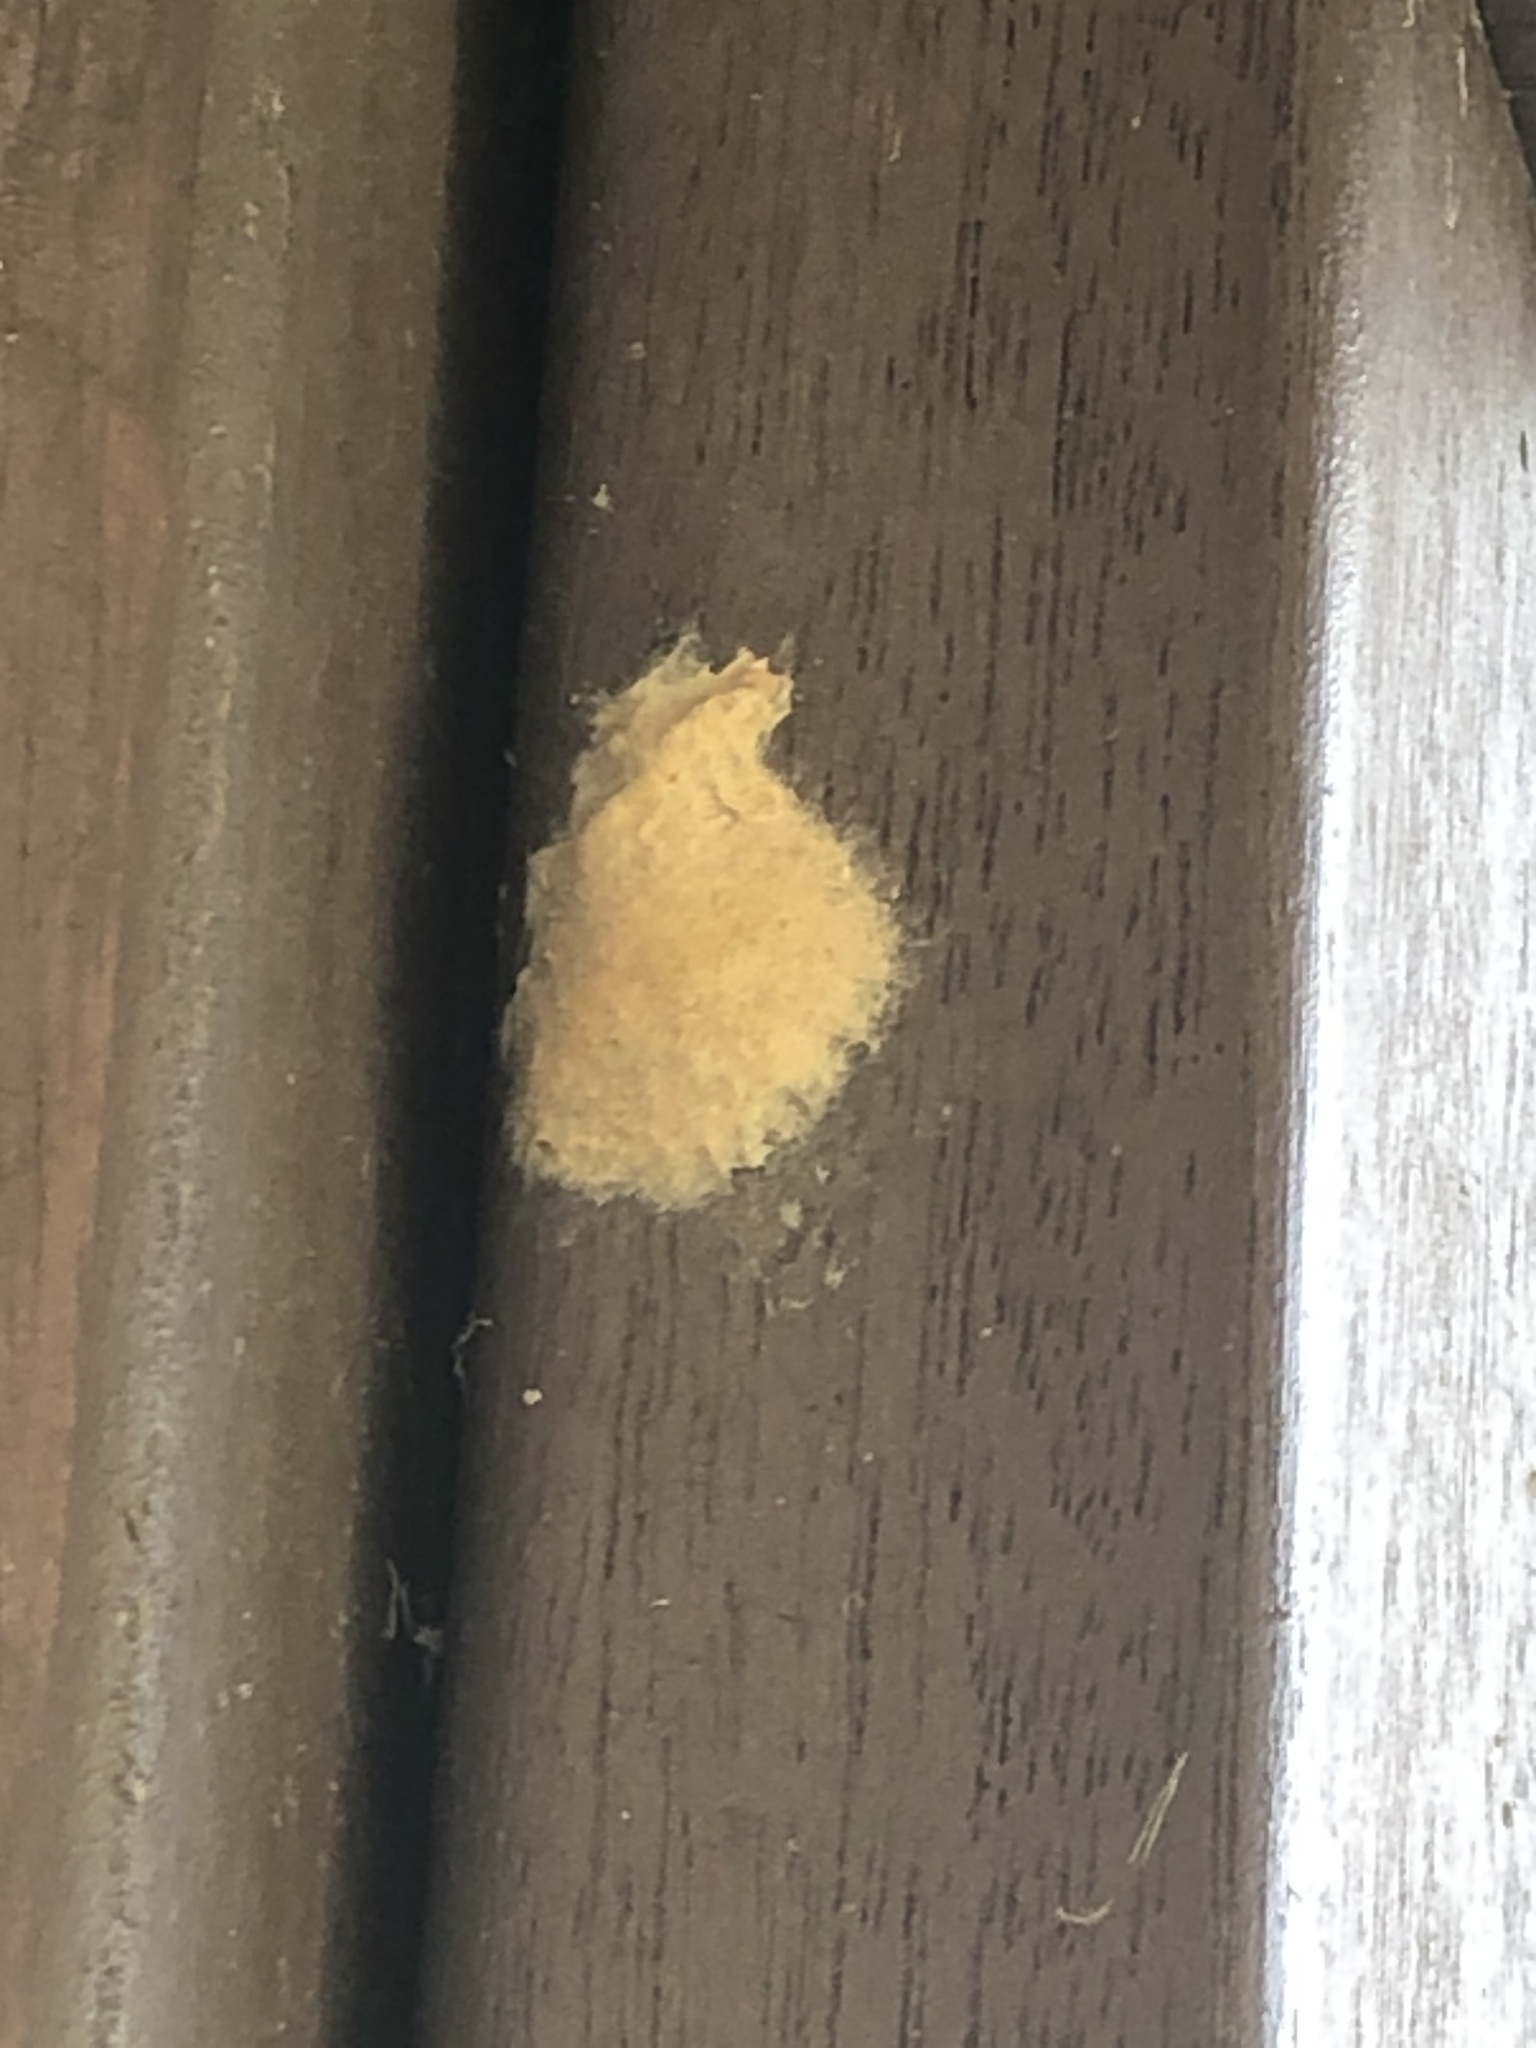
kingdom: Animalia
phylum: Arthropoda
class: Insecta
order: Lepidoptera
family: Erebidae
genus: Lymantria
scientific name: Lymantria dispar
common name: Gypsy moth
